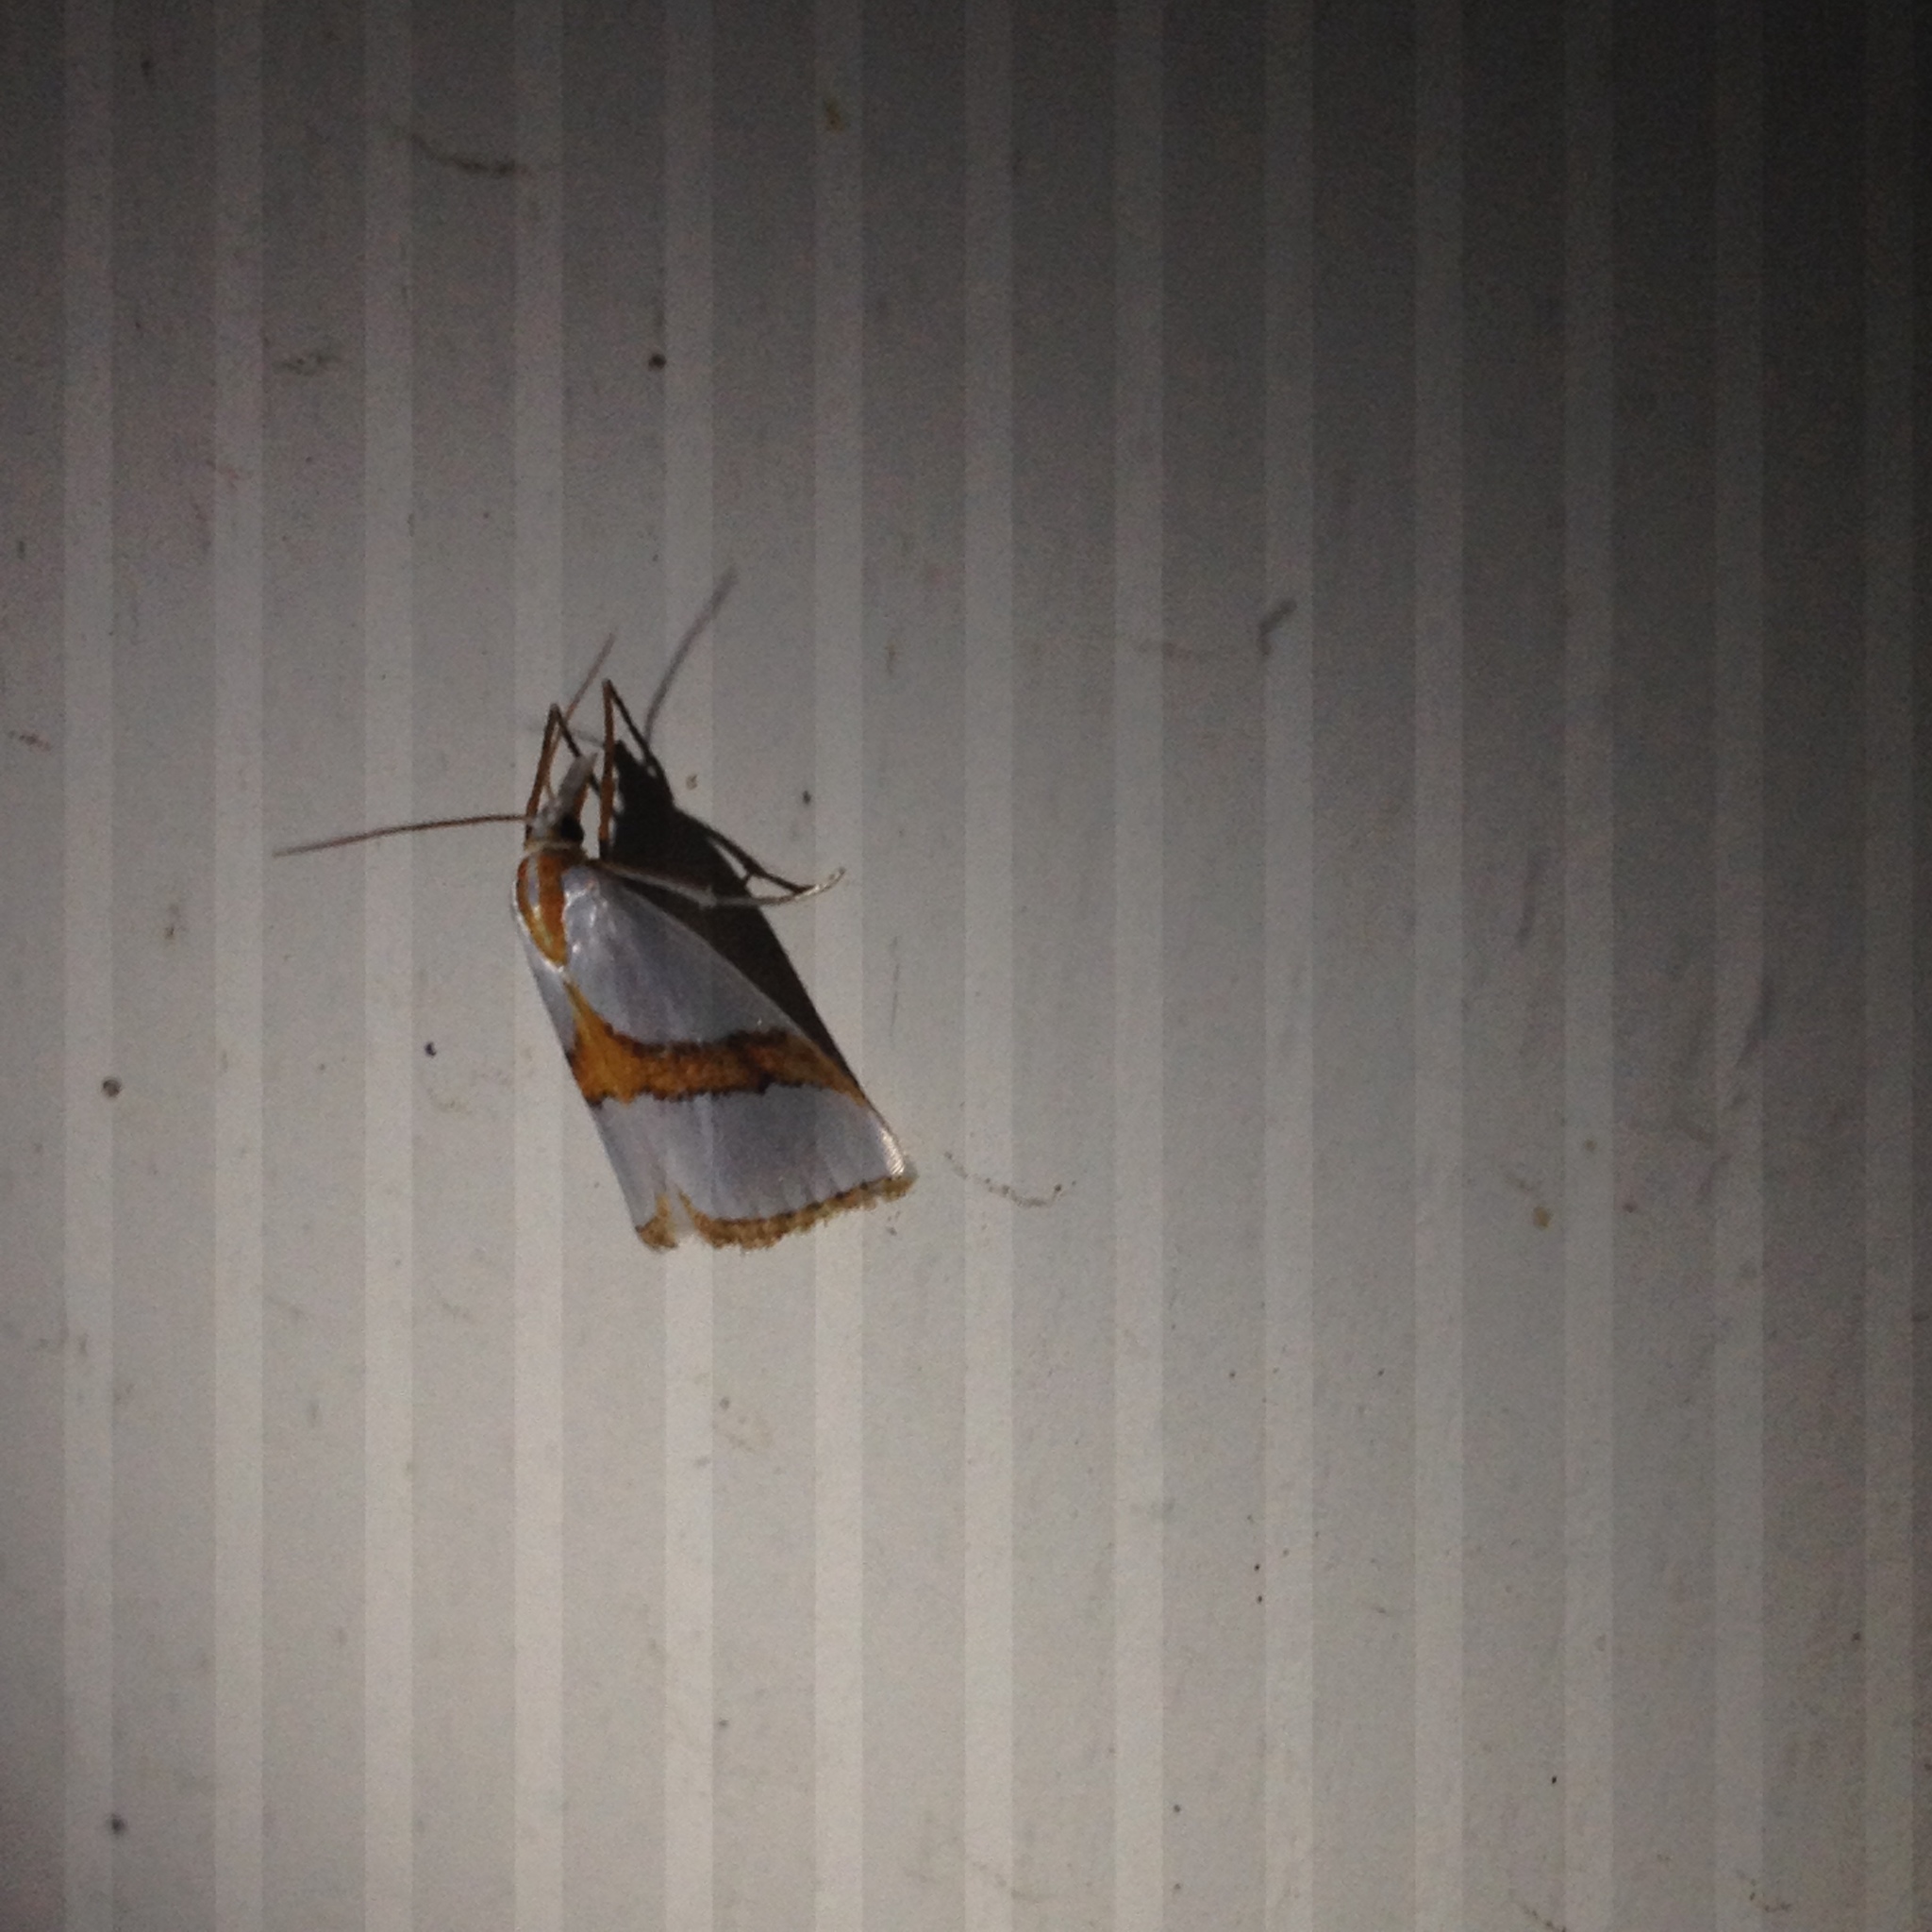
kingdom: Animalia
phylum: Arthropoda
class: Insecta
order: Lepidoptera
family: Crambidae
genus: Vaxi
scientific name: Vaxi critica
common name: Straight-lined vaxi moth
